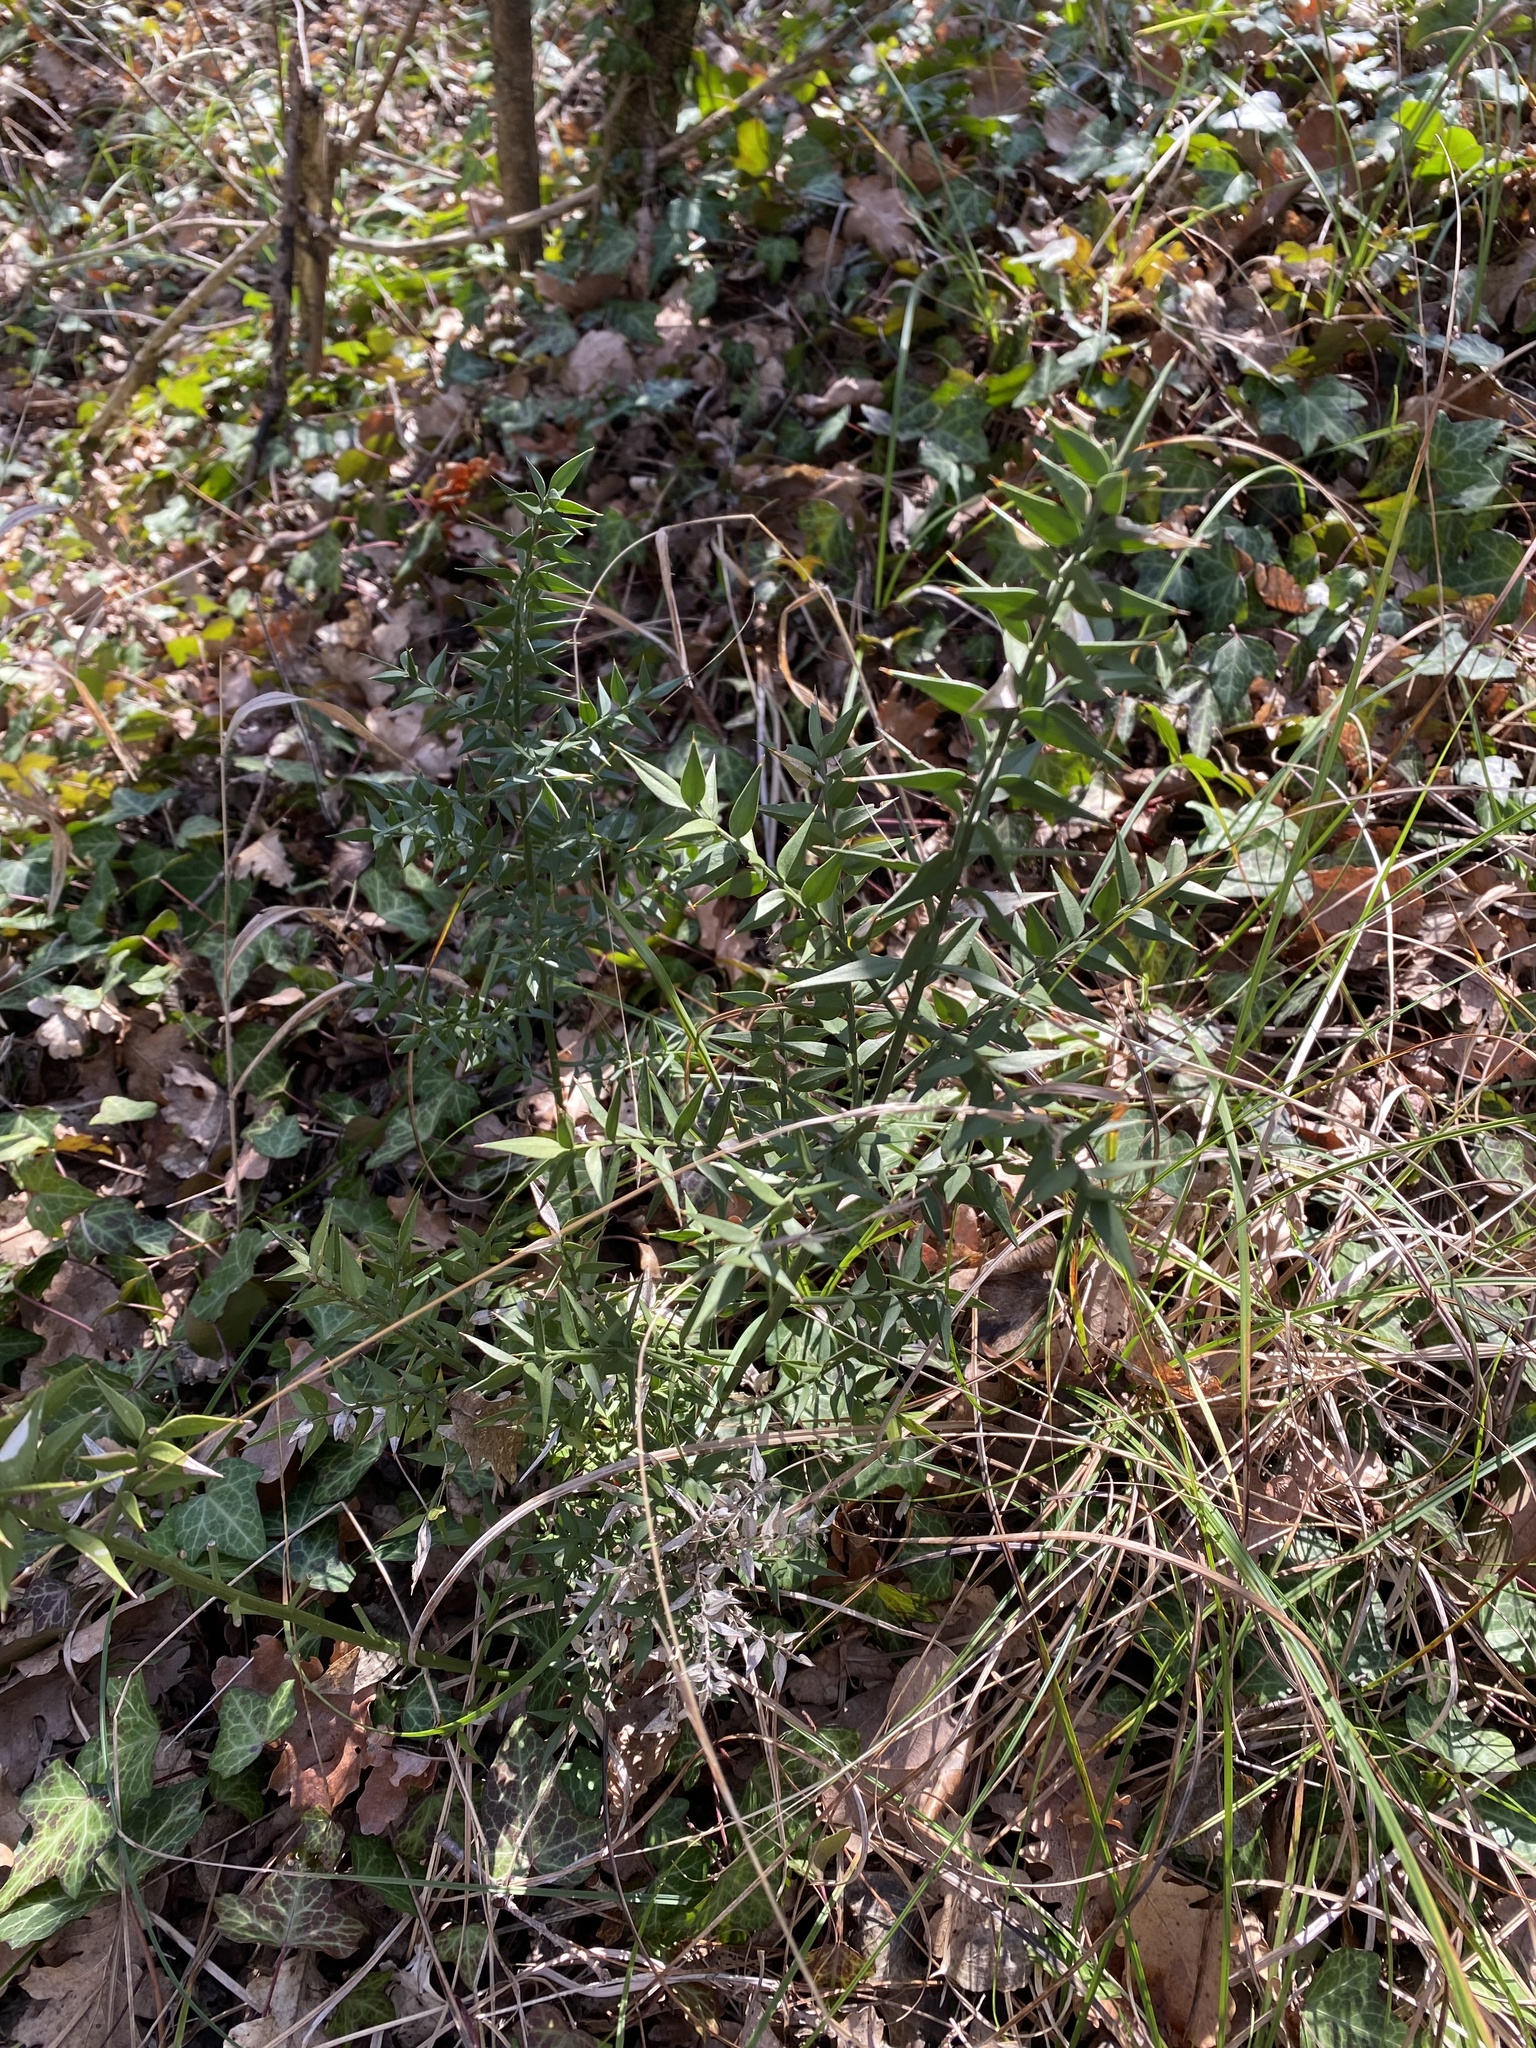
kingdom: Plantae
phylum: Tracheophyta
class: Liliopsida
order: Asparagales
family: Asparagaceae
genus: Ruscus
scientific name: Ruscus aculeatus
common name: Butcher's-broom
